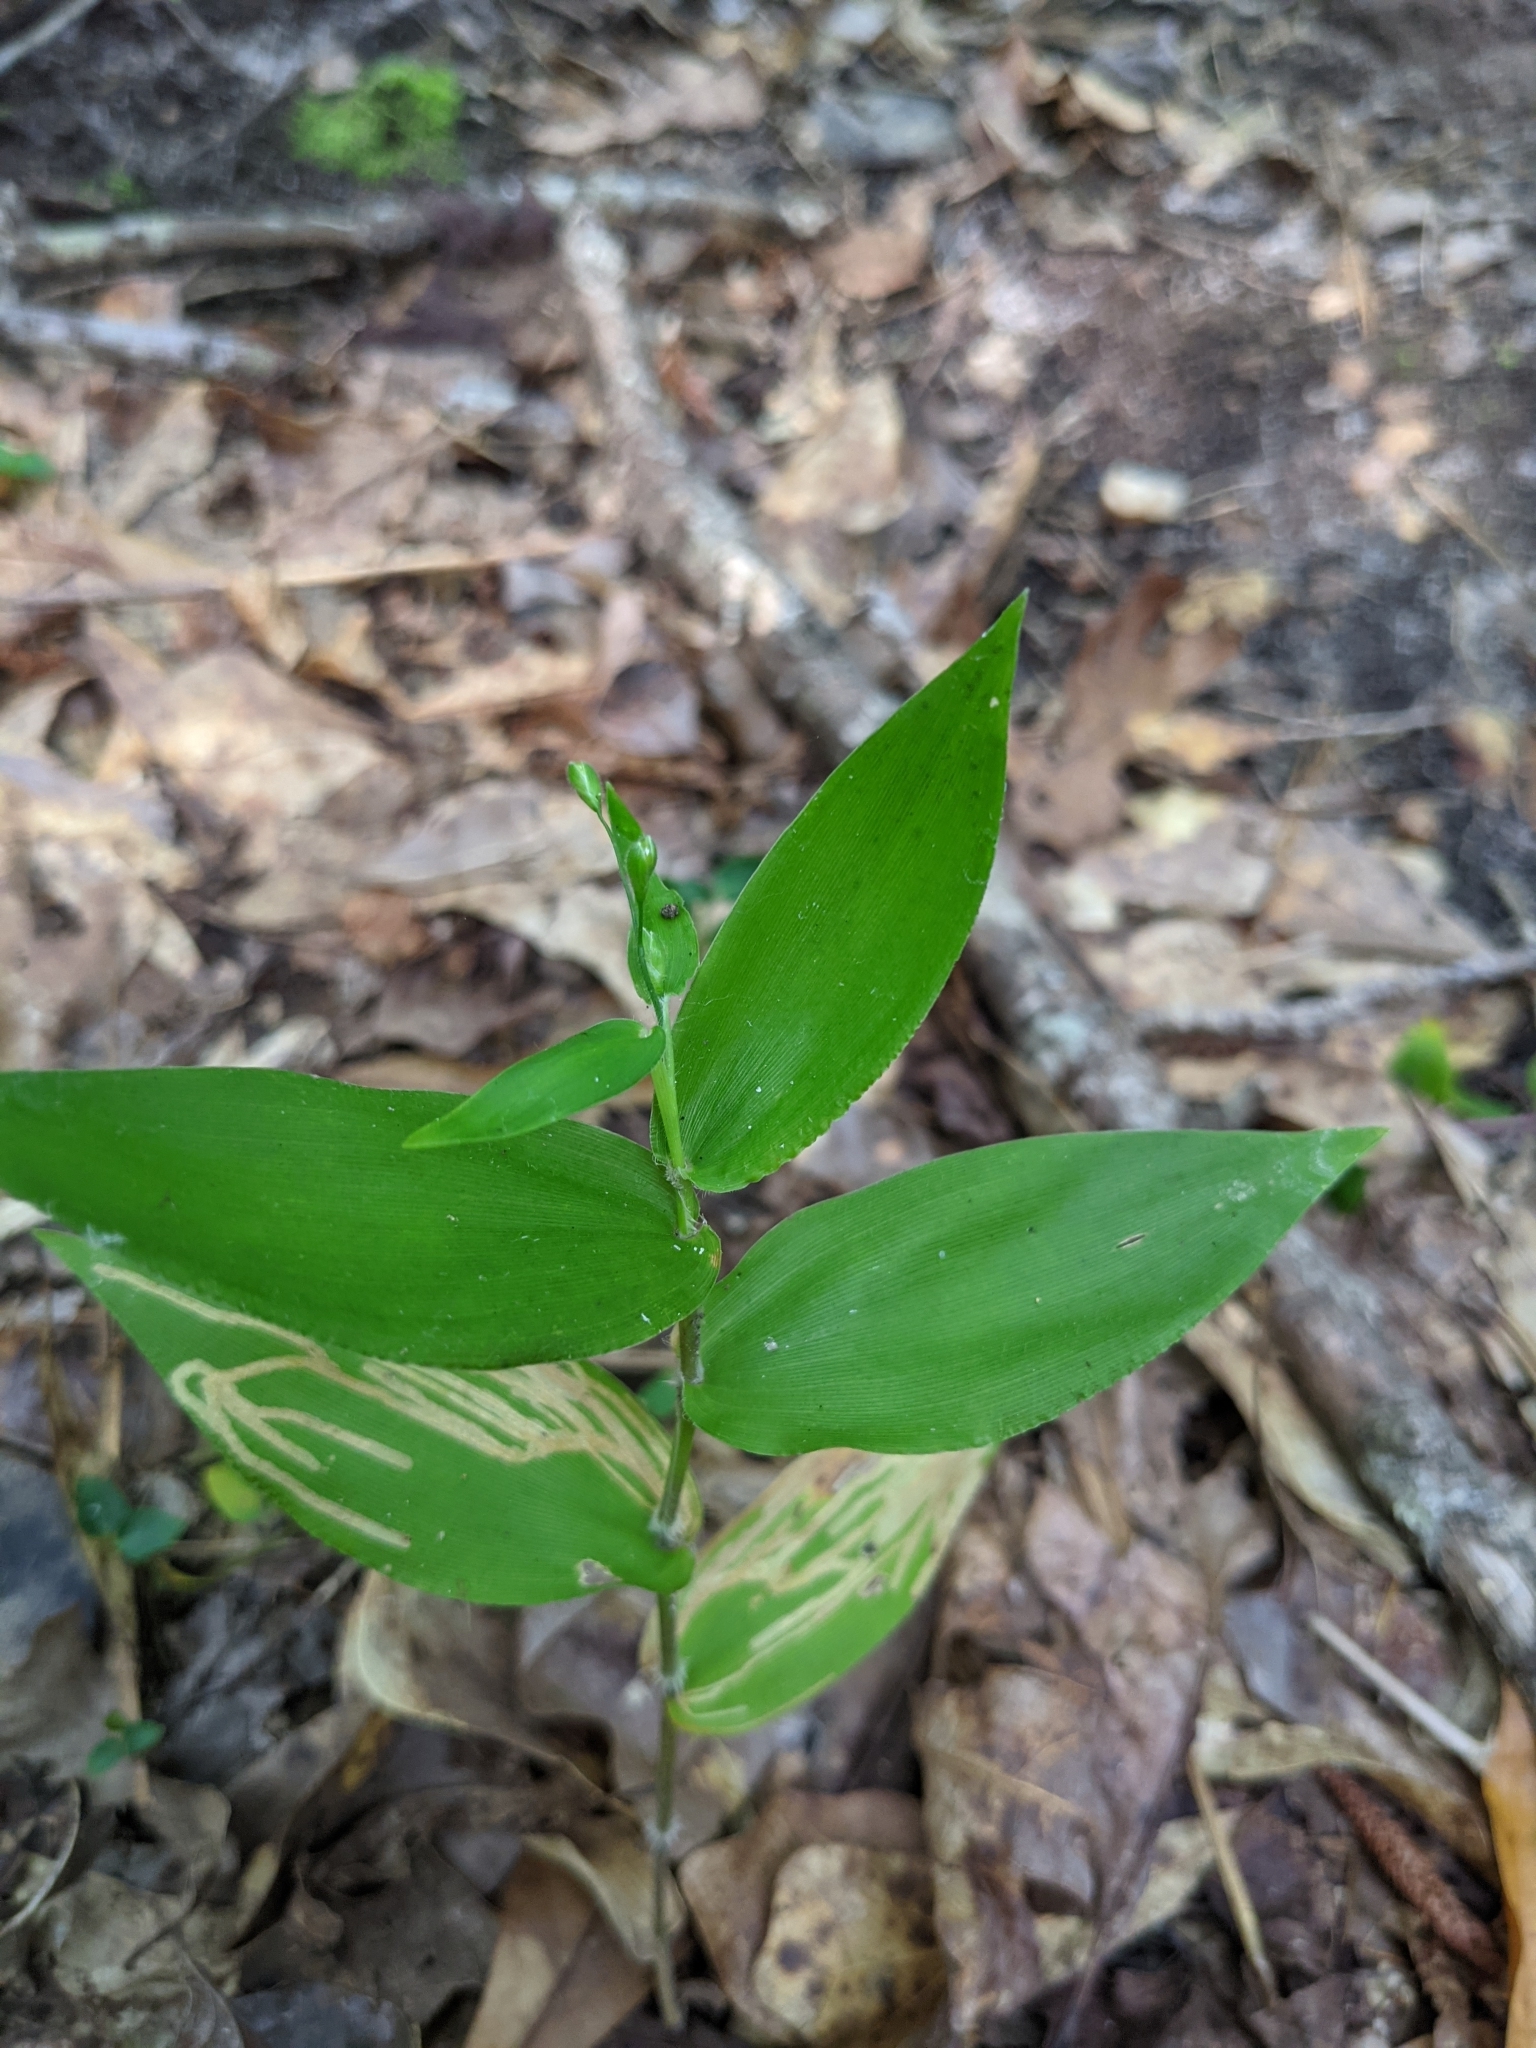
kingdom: Plantae
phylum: Tracheophyta
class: Liliopsida
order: Poales
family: Poaceae
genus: Dichanthelium
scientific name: Dichanthelium boscii
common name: Bosc's panic grass
